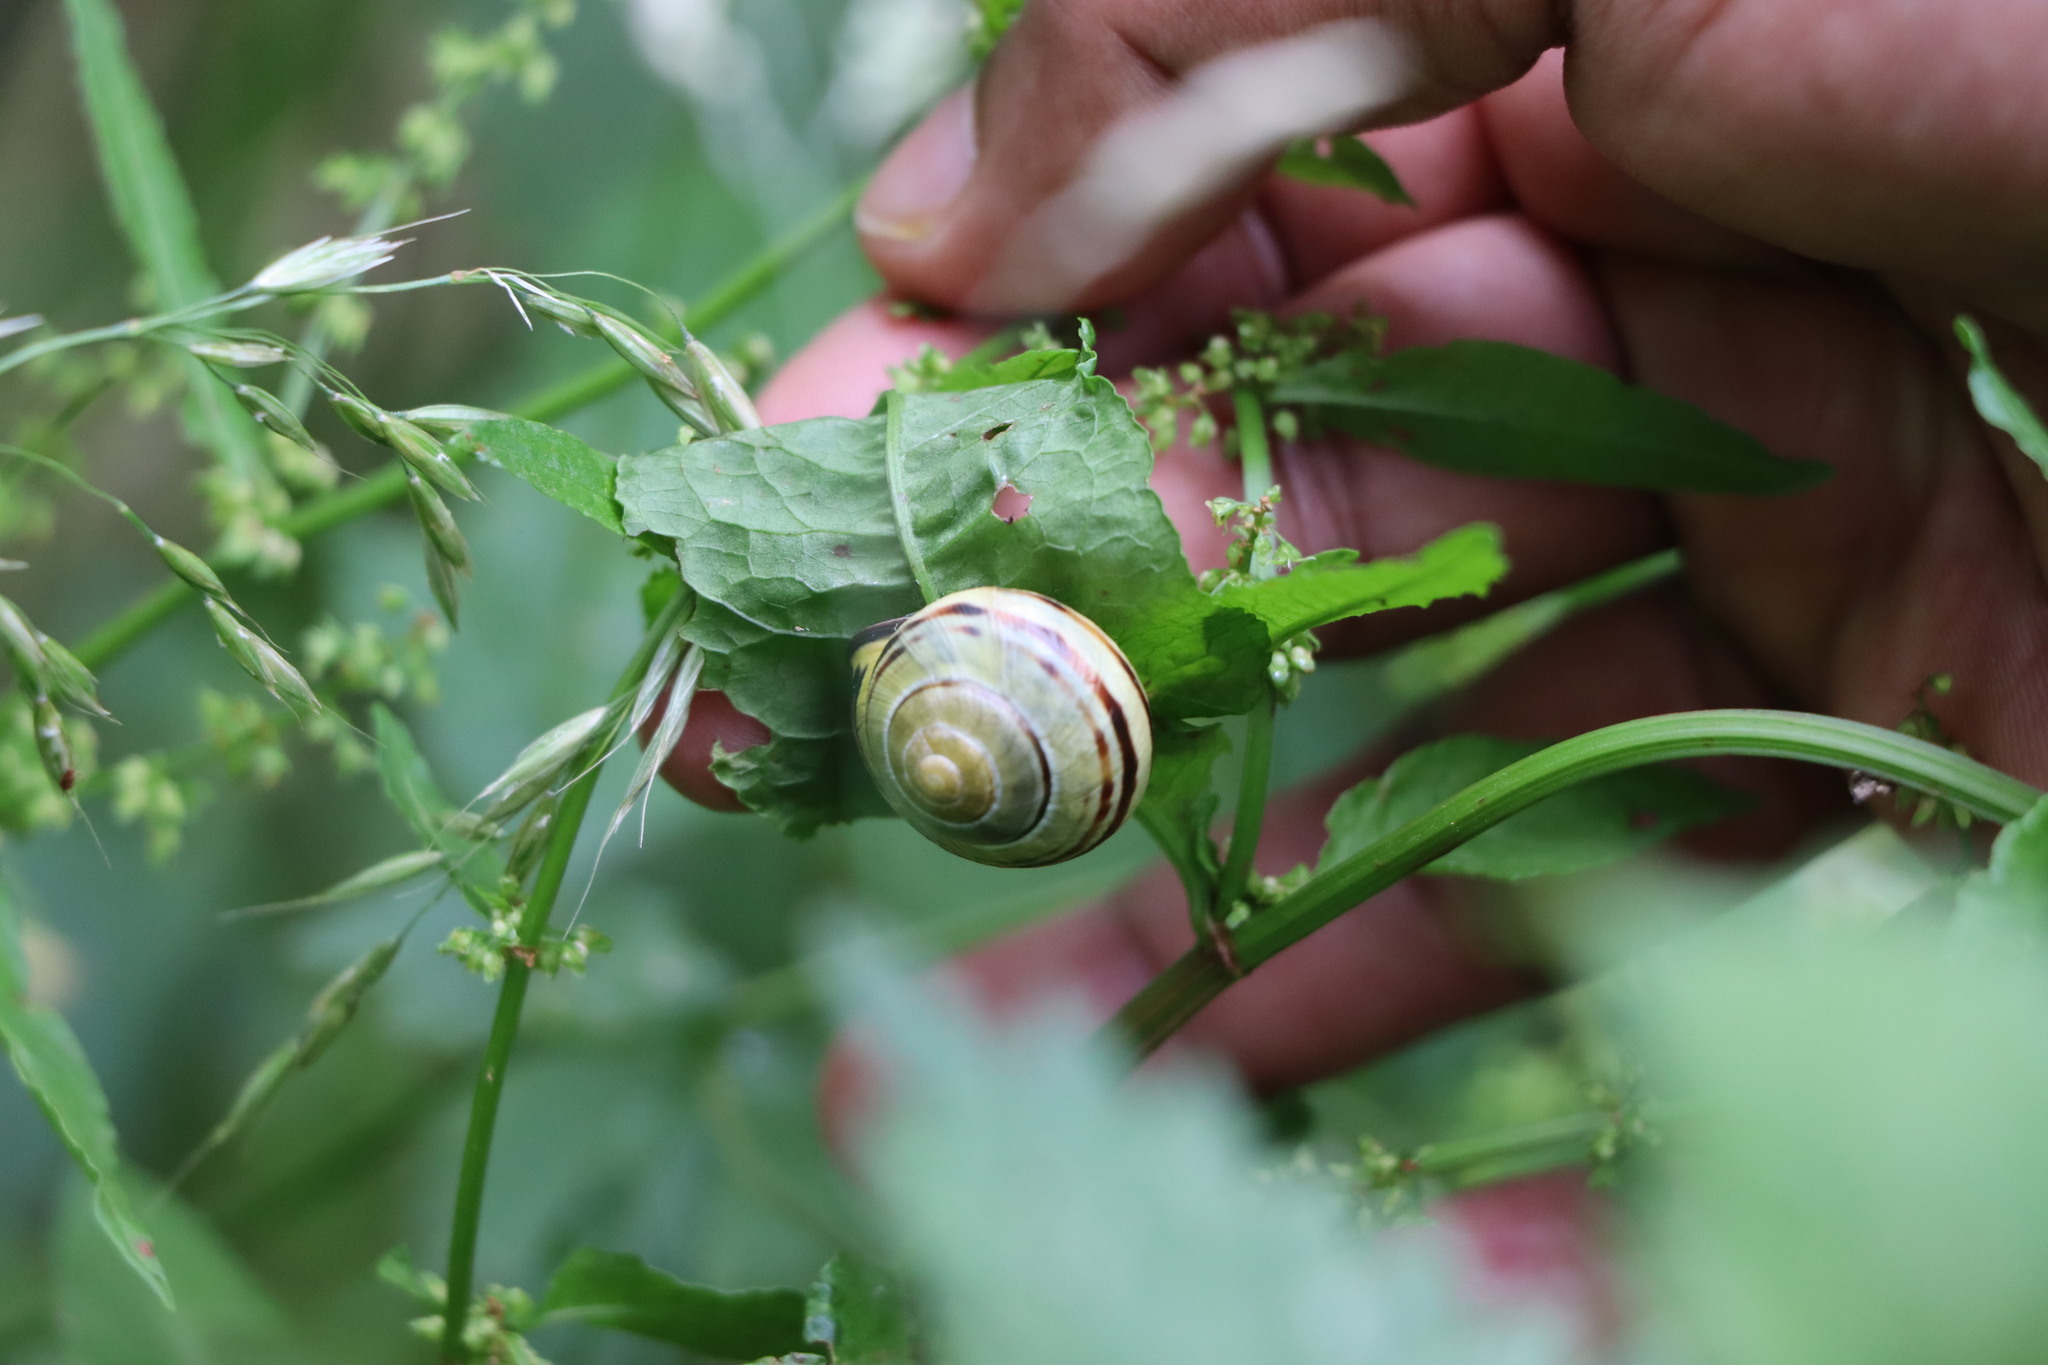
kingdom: Animalia
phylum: Mollusca
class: Gastropoda
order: Stylommatophora
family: Helicidae
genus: Cepaea
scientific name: Cepaea nemoralis
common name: Grovesnail
